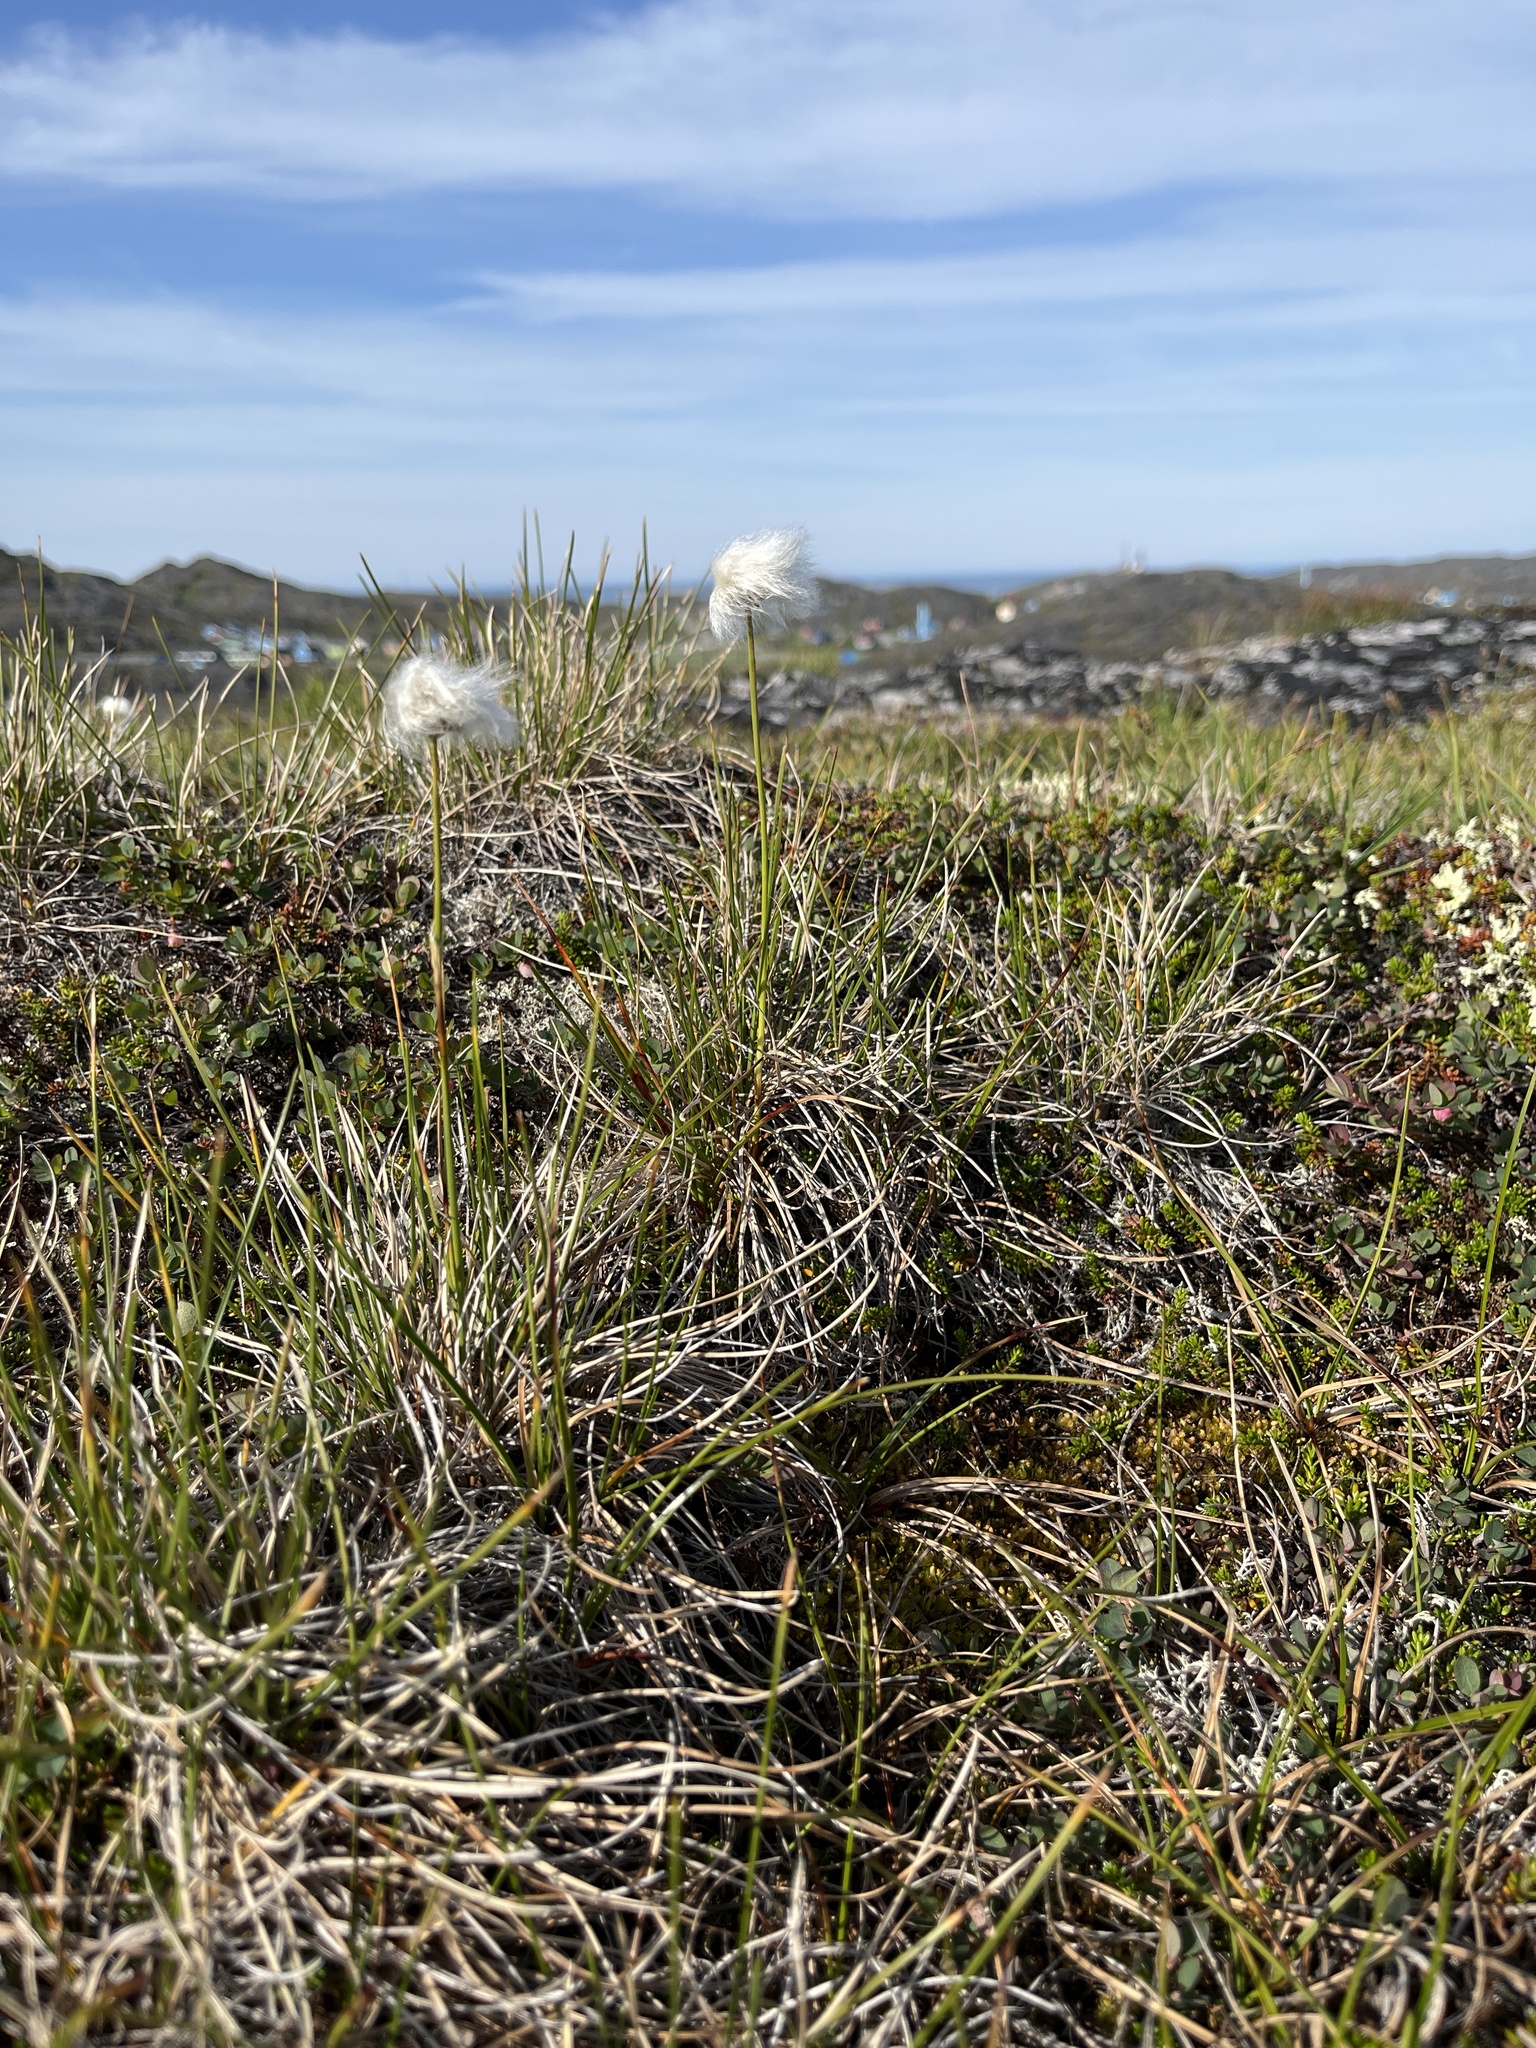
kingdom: Plantae
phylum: Tracheophyta
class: Liliopsida
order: Poales
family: Cyperaceae
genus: Eriophorum
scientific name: Eriophorum vaginatum
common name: Hare's-tail cottongrass
